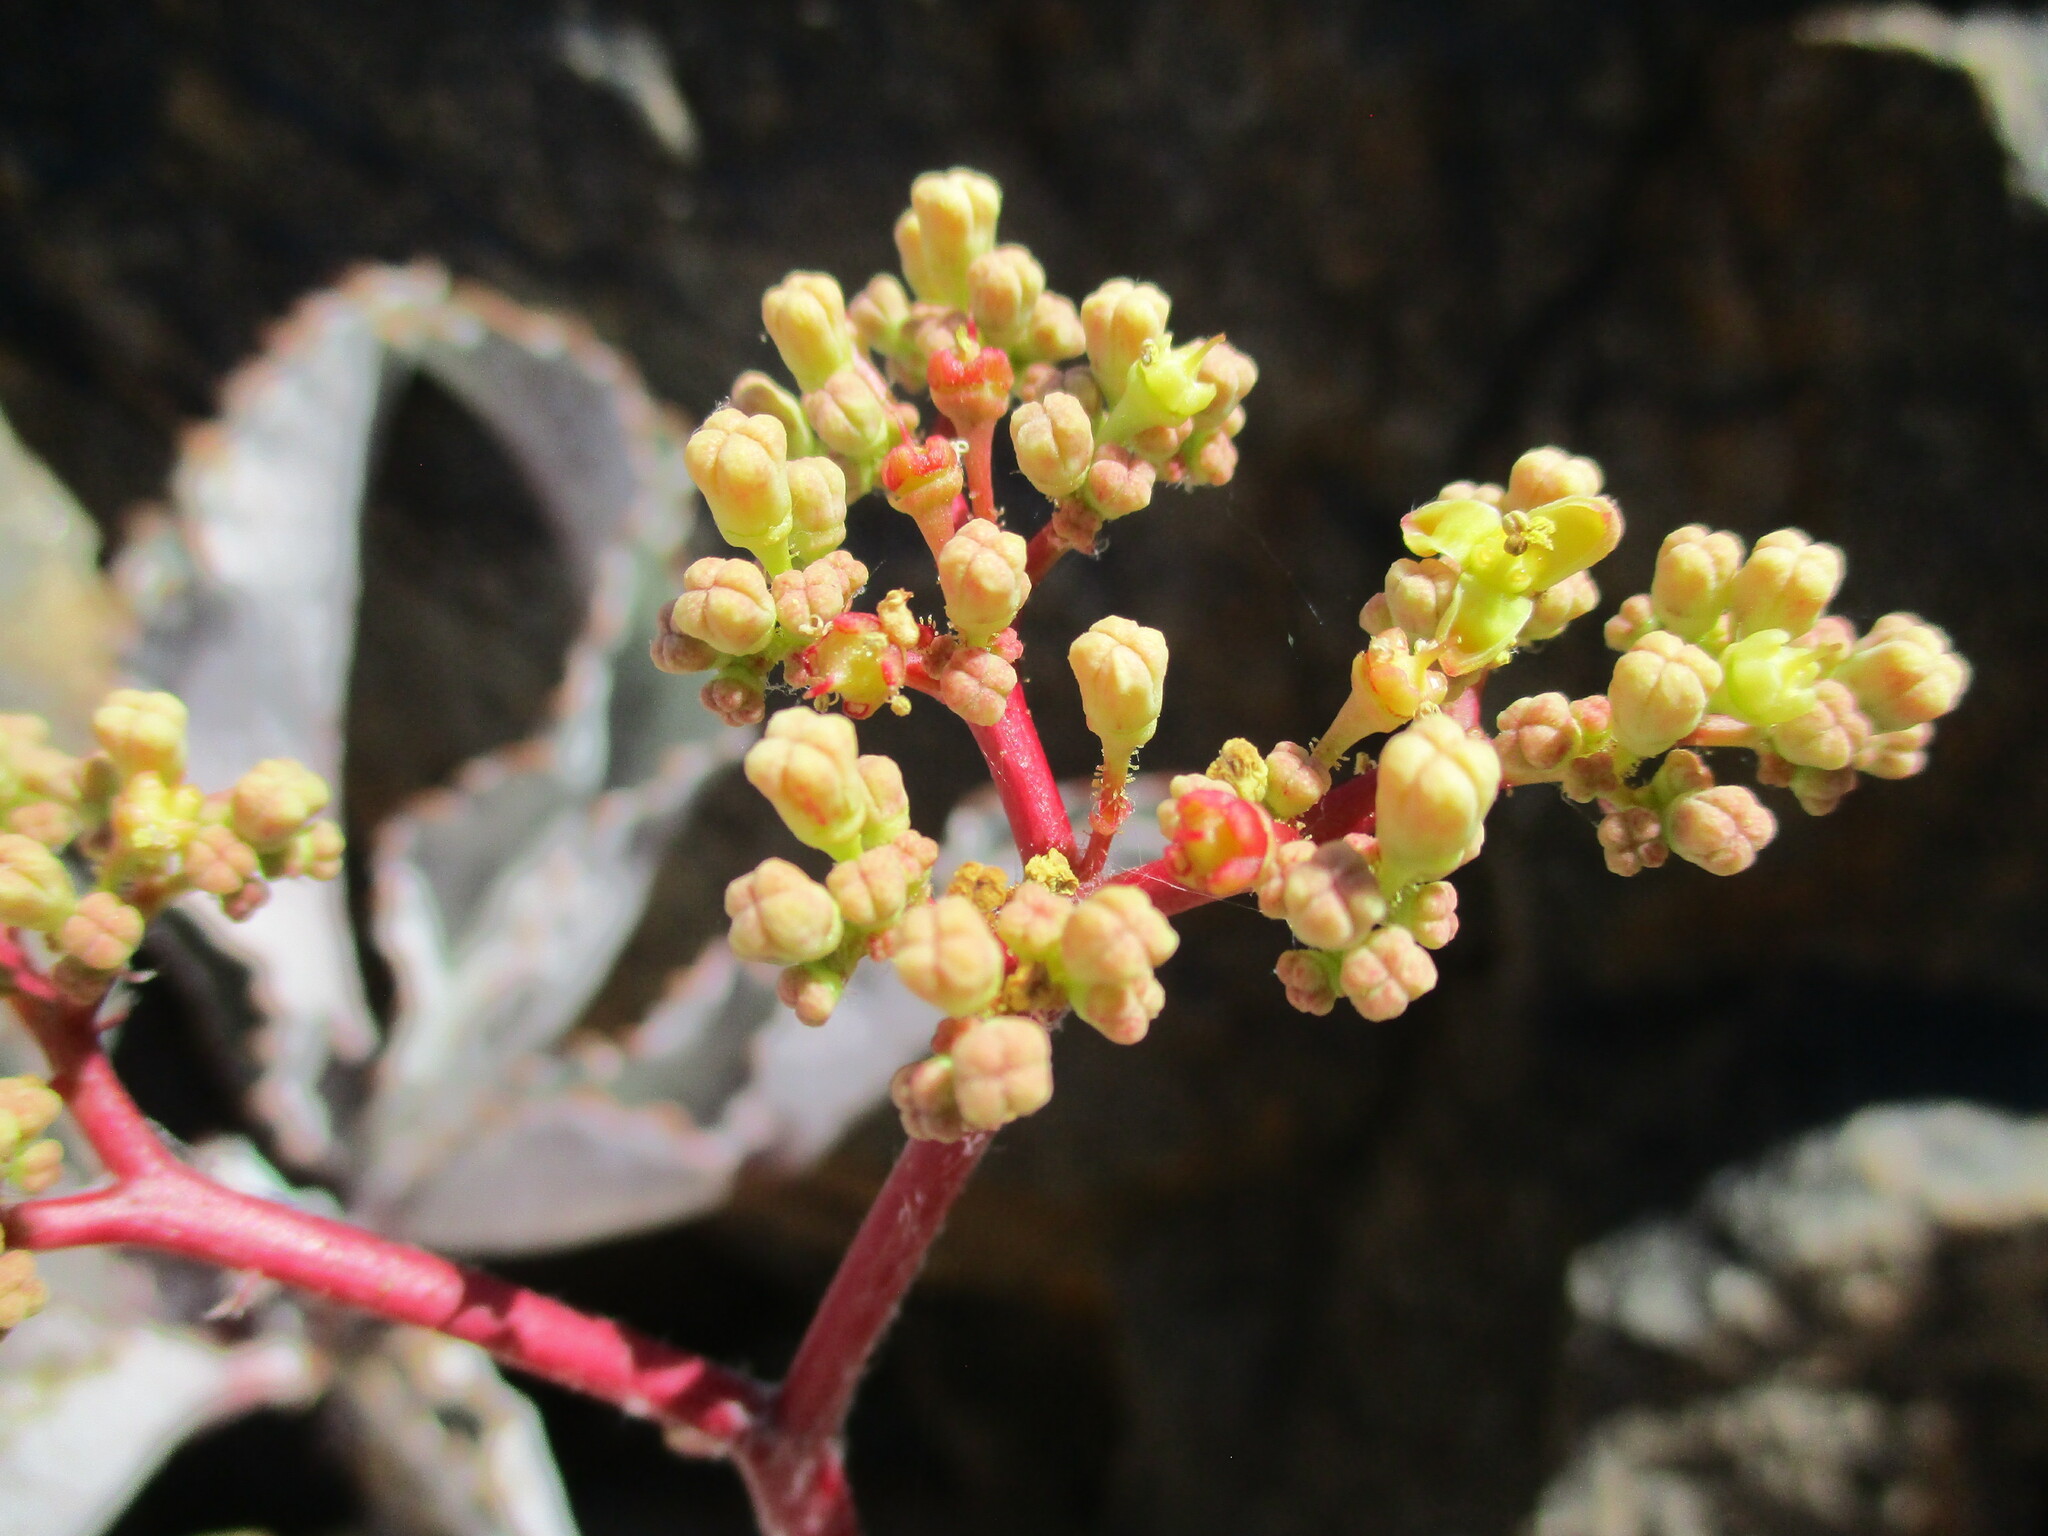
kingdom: Plantae
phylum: Tracheophyta
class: Magnoliopsida
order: Vitales
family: Vitaceae
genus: Cyphostemma
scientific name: Cyphostemma bainesii
